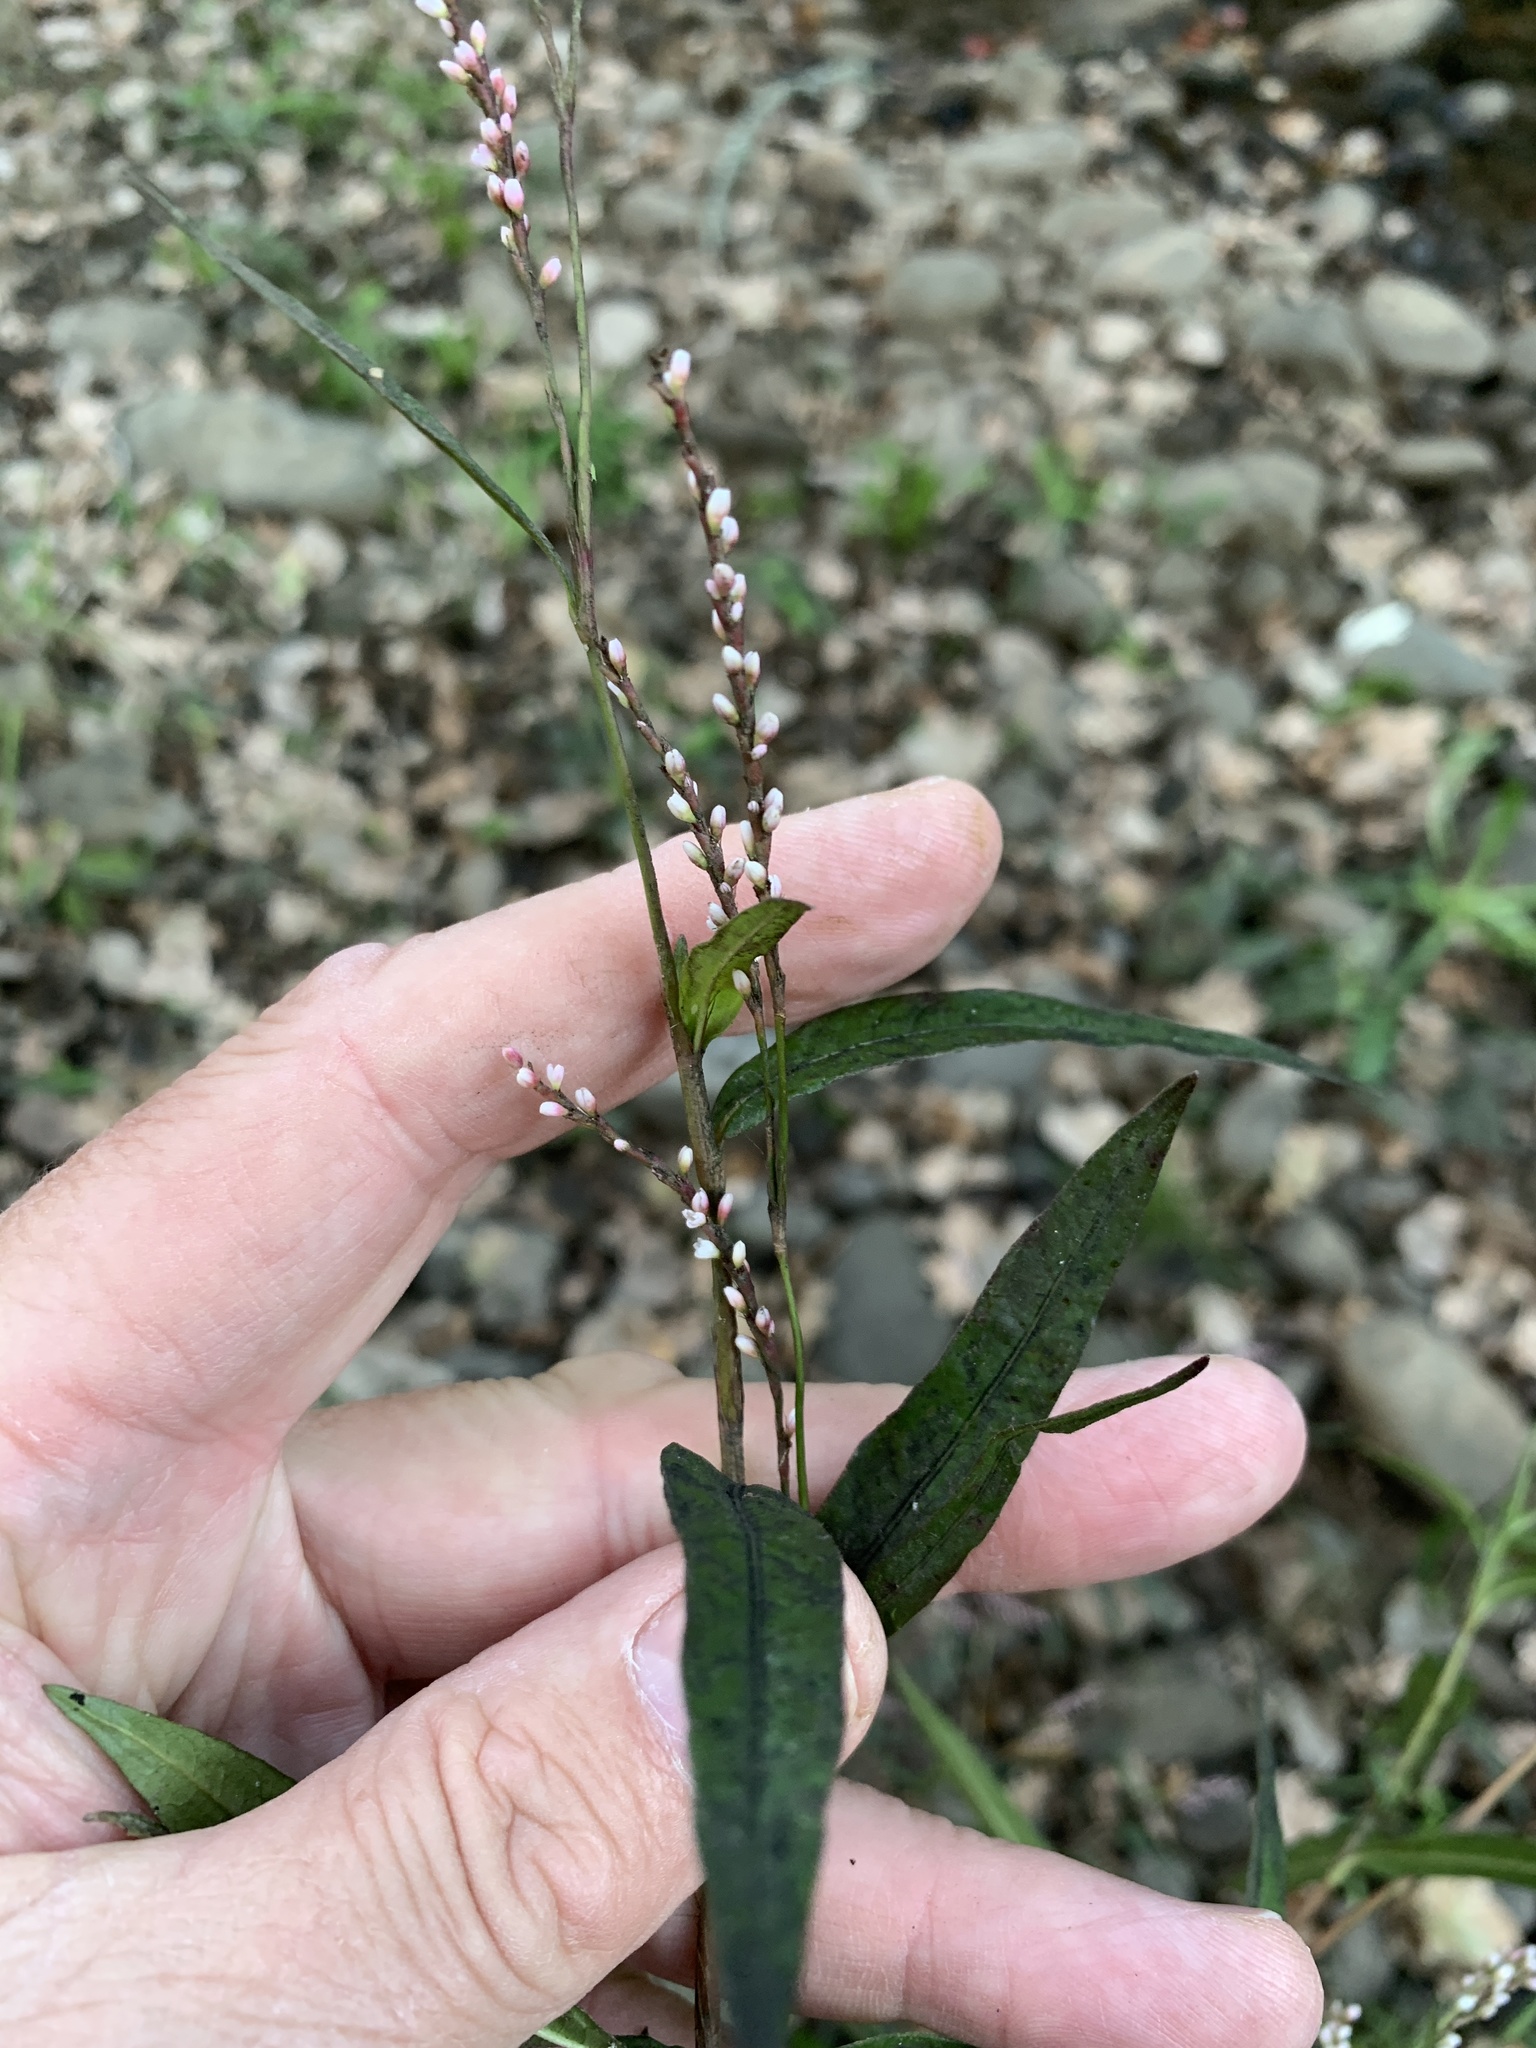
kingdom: Plantae
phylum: Tracheophyta
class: Magnoliopsida
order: Caryophyllales
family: Polygonaceae
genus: Persicaria
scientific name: Persicaria decipiens
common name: Willow-weed
